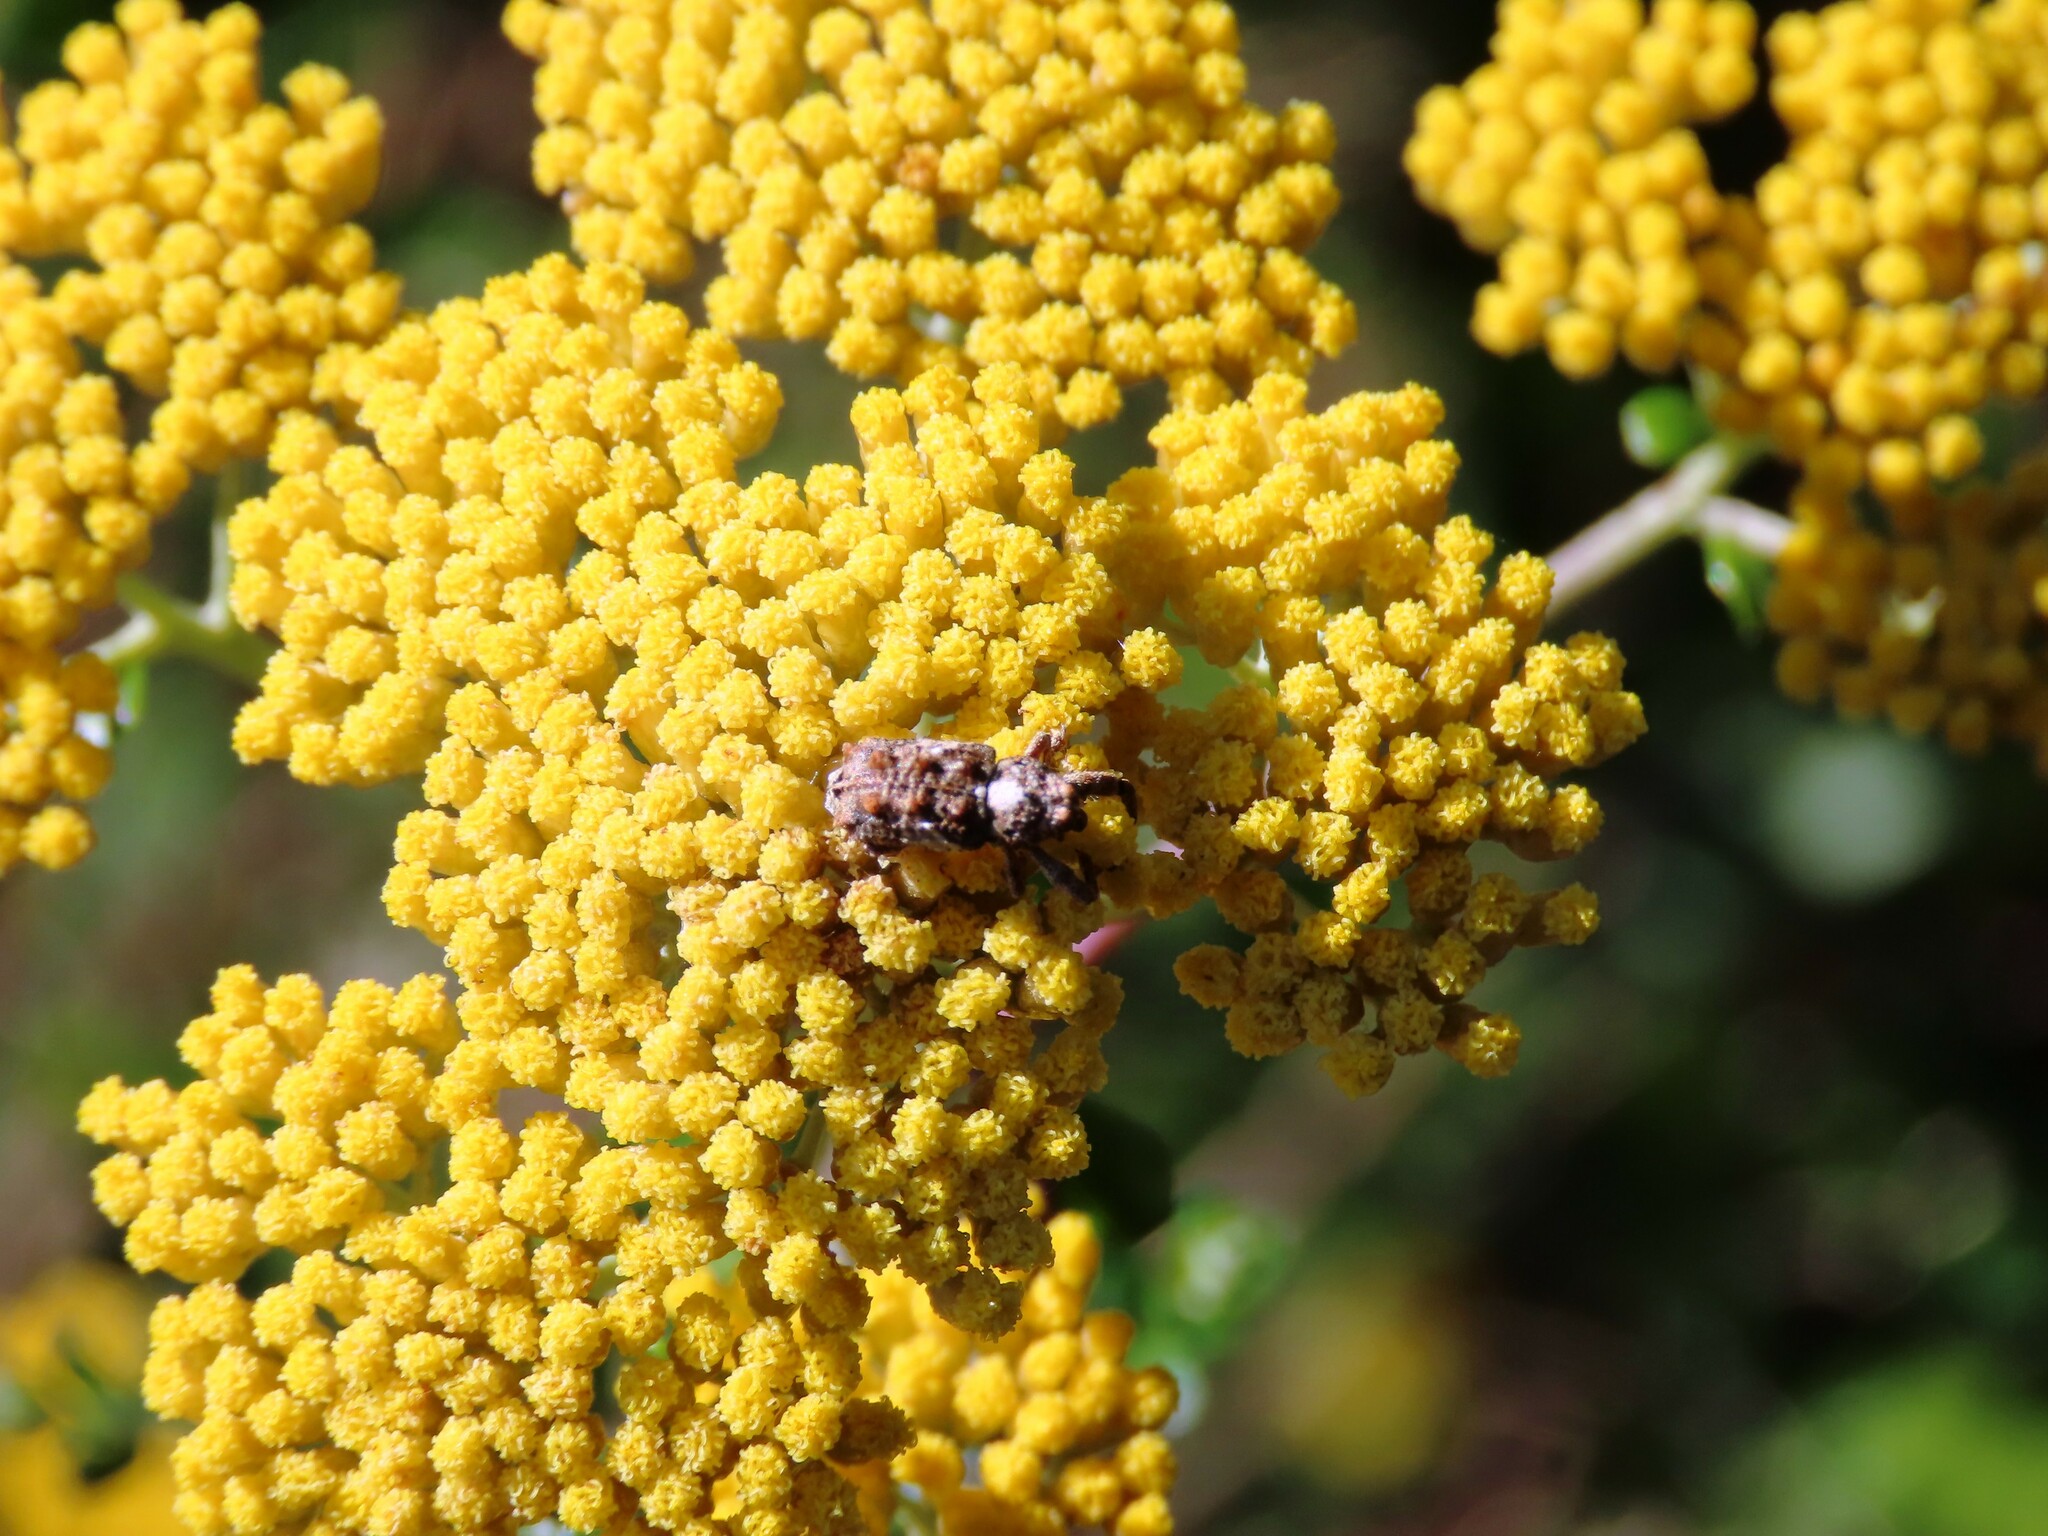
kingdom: Animalia
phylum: Arthropoda
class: Insecta
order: Coleoptera
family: Curculionidae
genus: Orthorhinus
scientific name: Orthorhinus klugii
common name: Vine weevil
